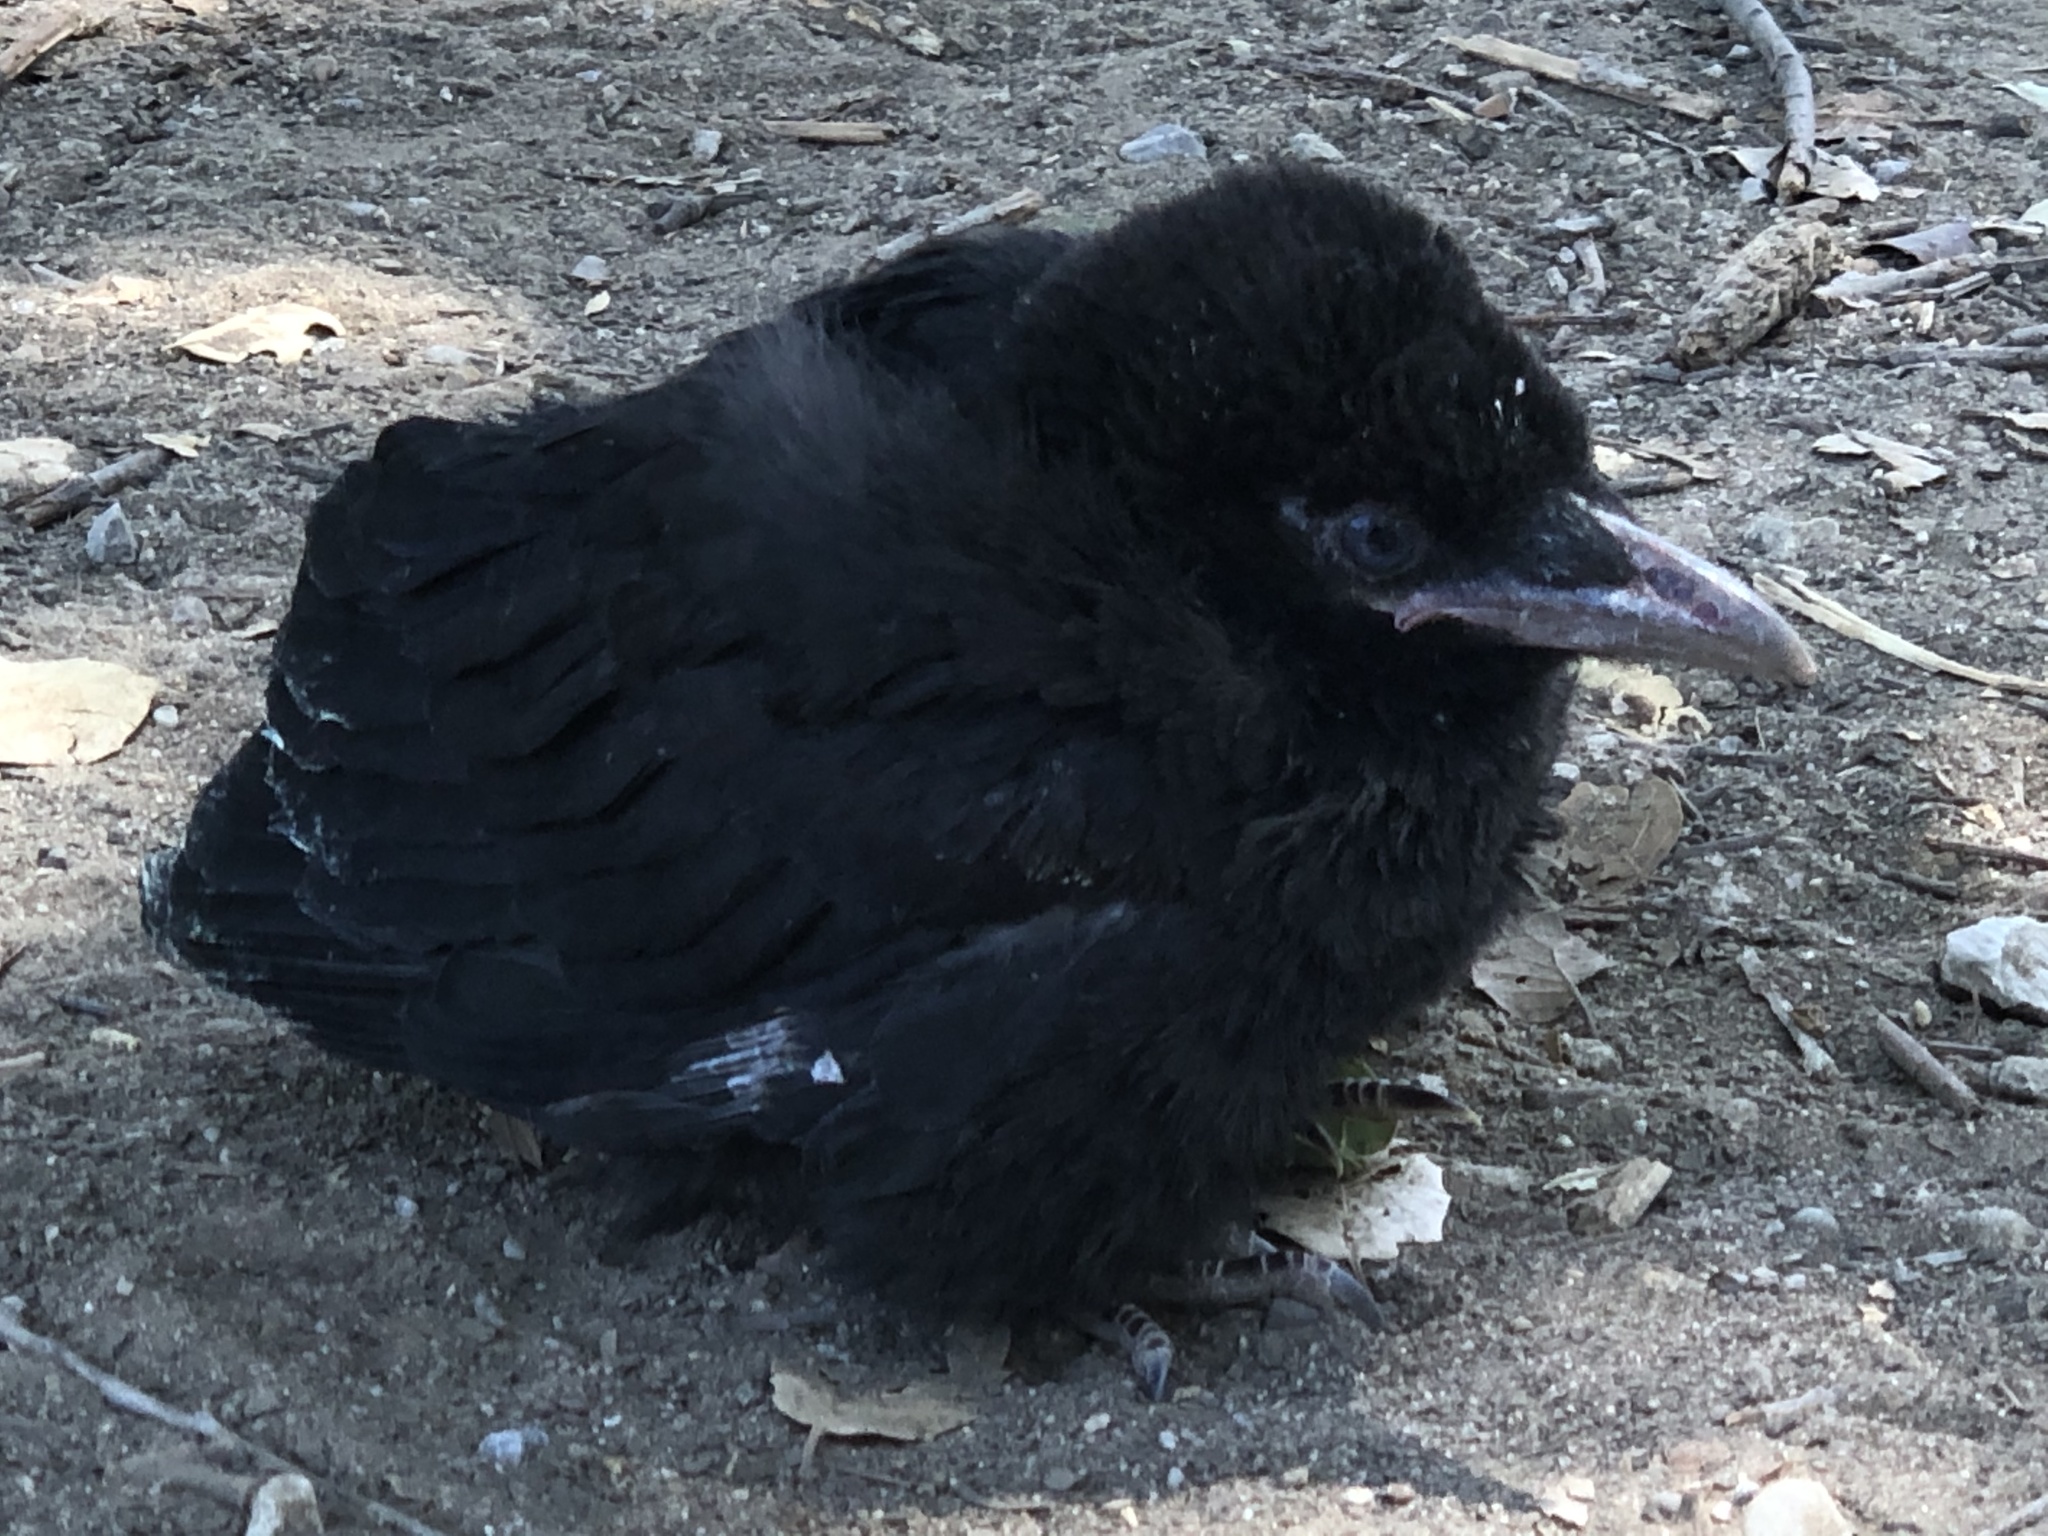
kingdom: Animalia
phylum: Chordata
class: Aves
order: Passeriformes
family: Corvidae
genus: Corvus
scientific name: Corvus brachyrhynchos
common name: American crow
